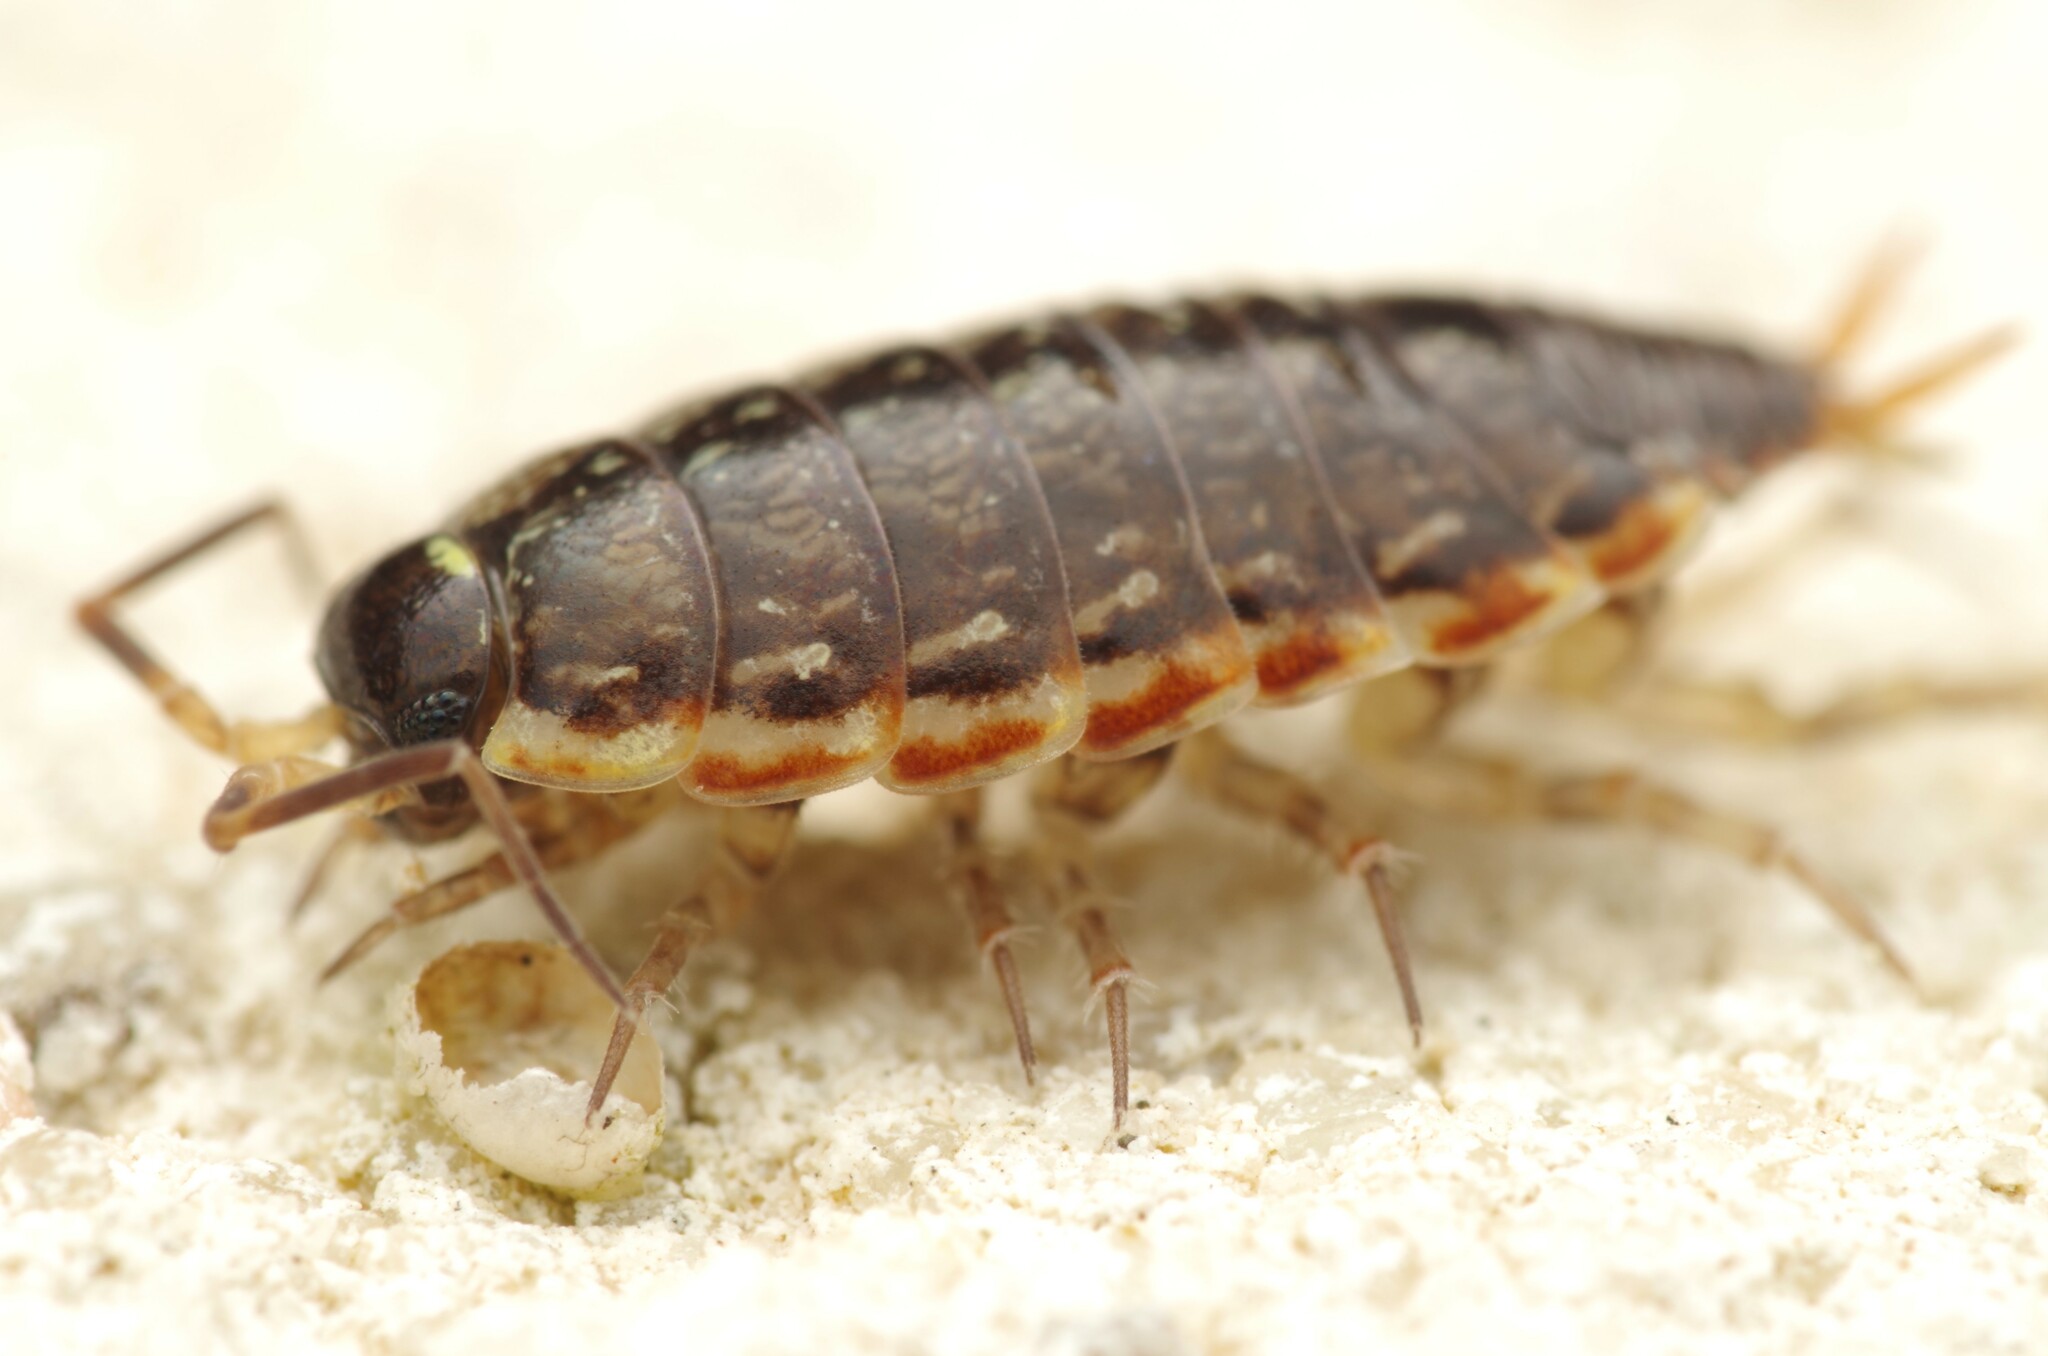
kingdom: Animalia
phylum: Arthropoda
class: Malacostraca
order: Isopoda
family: Philosciidae
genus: Philoscia
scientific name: Philoscia muscorum
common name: Common striped woodlouse
